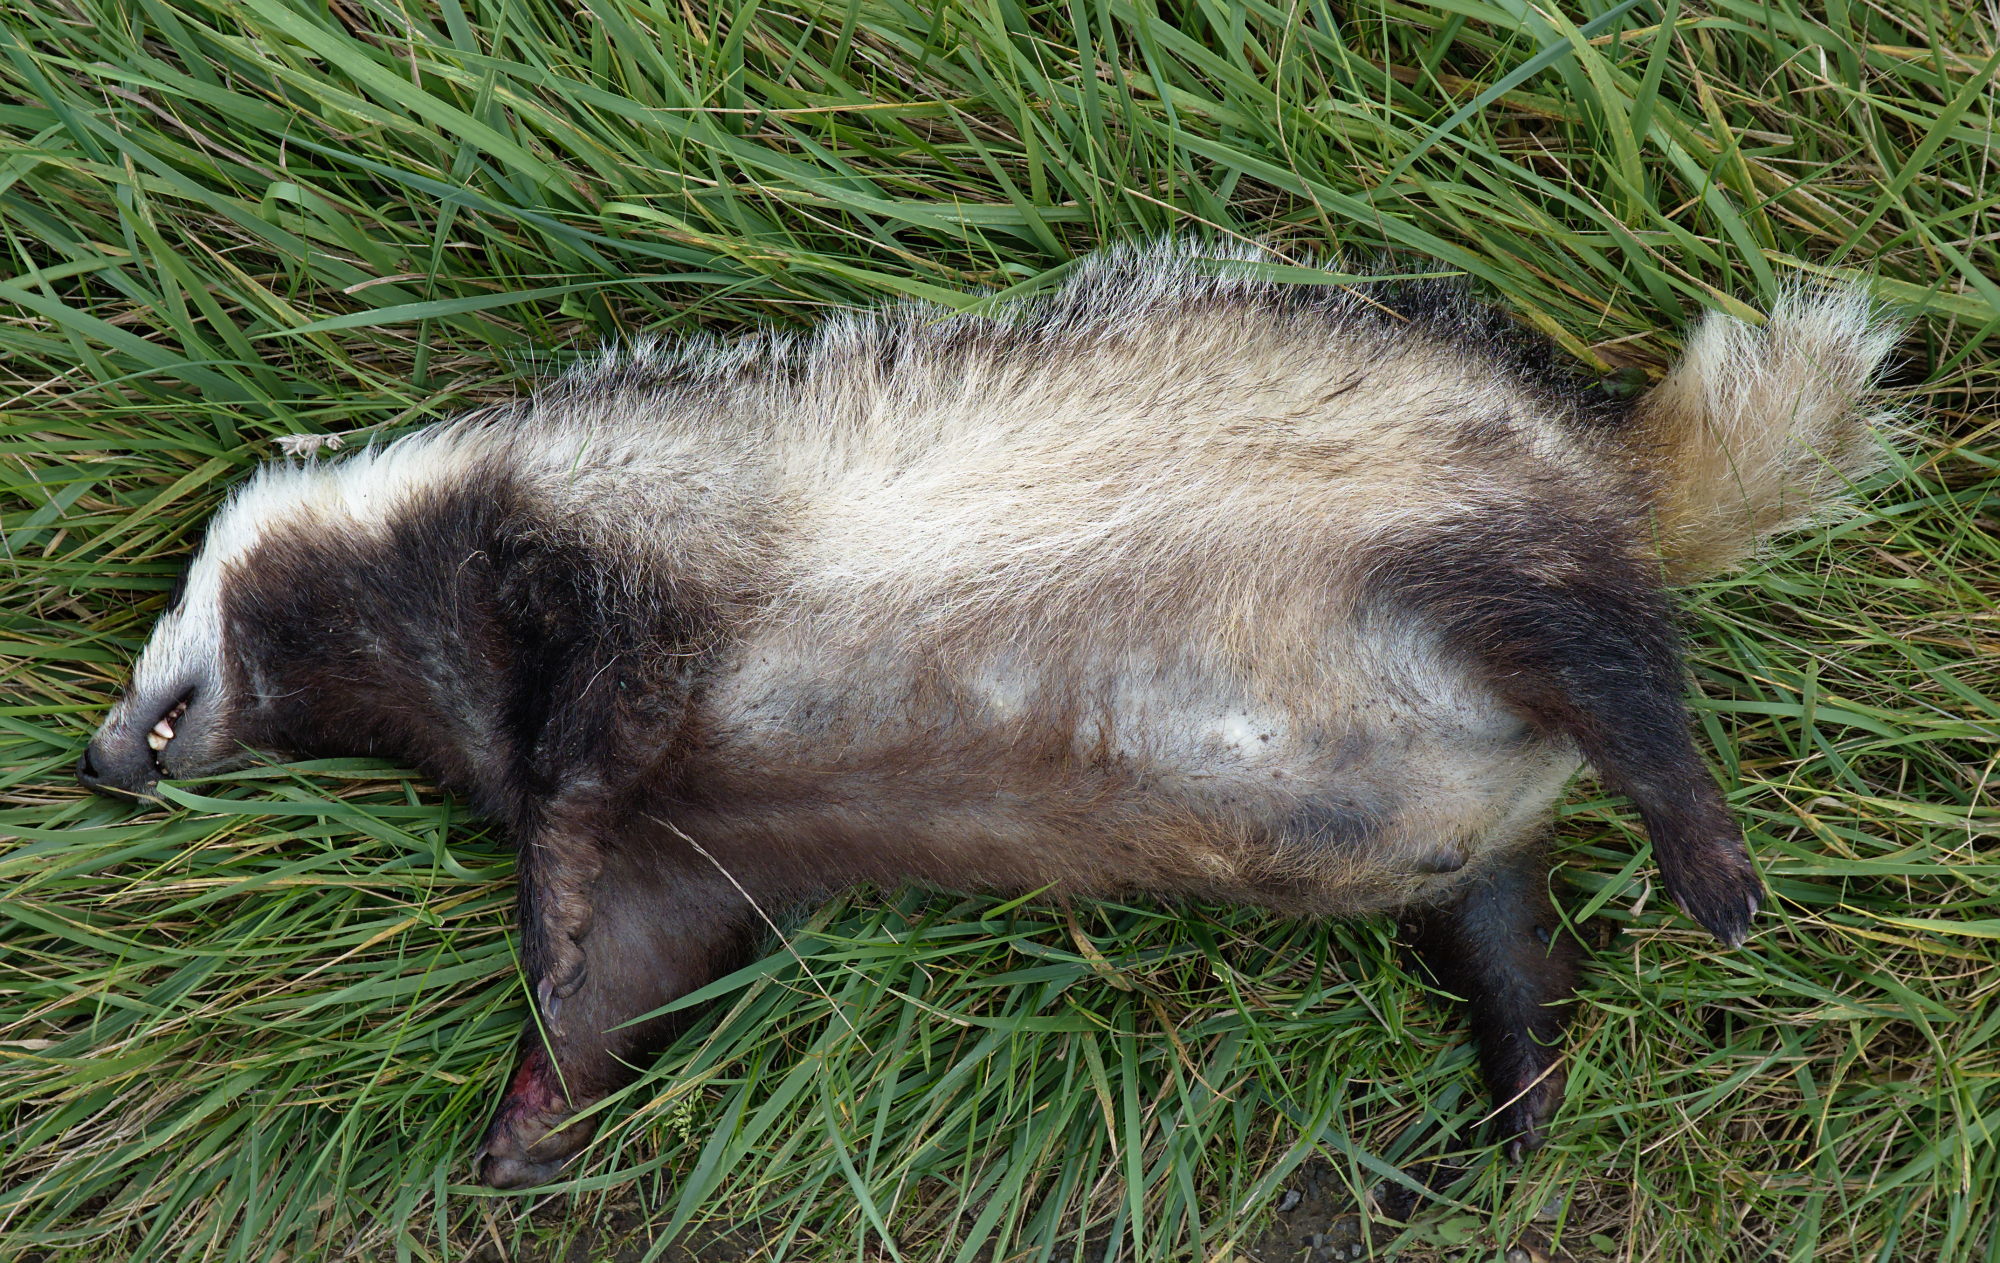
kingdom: Animalia
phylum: Chordata
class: Mammalia
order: Carnivora
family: Mustelidae
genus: Meles
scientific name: Meles meles
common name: Eurasian badger
